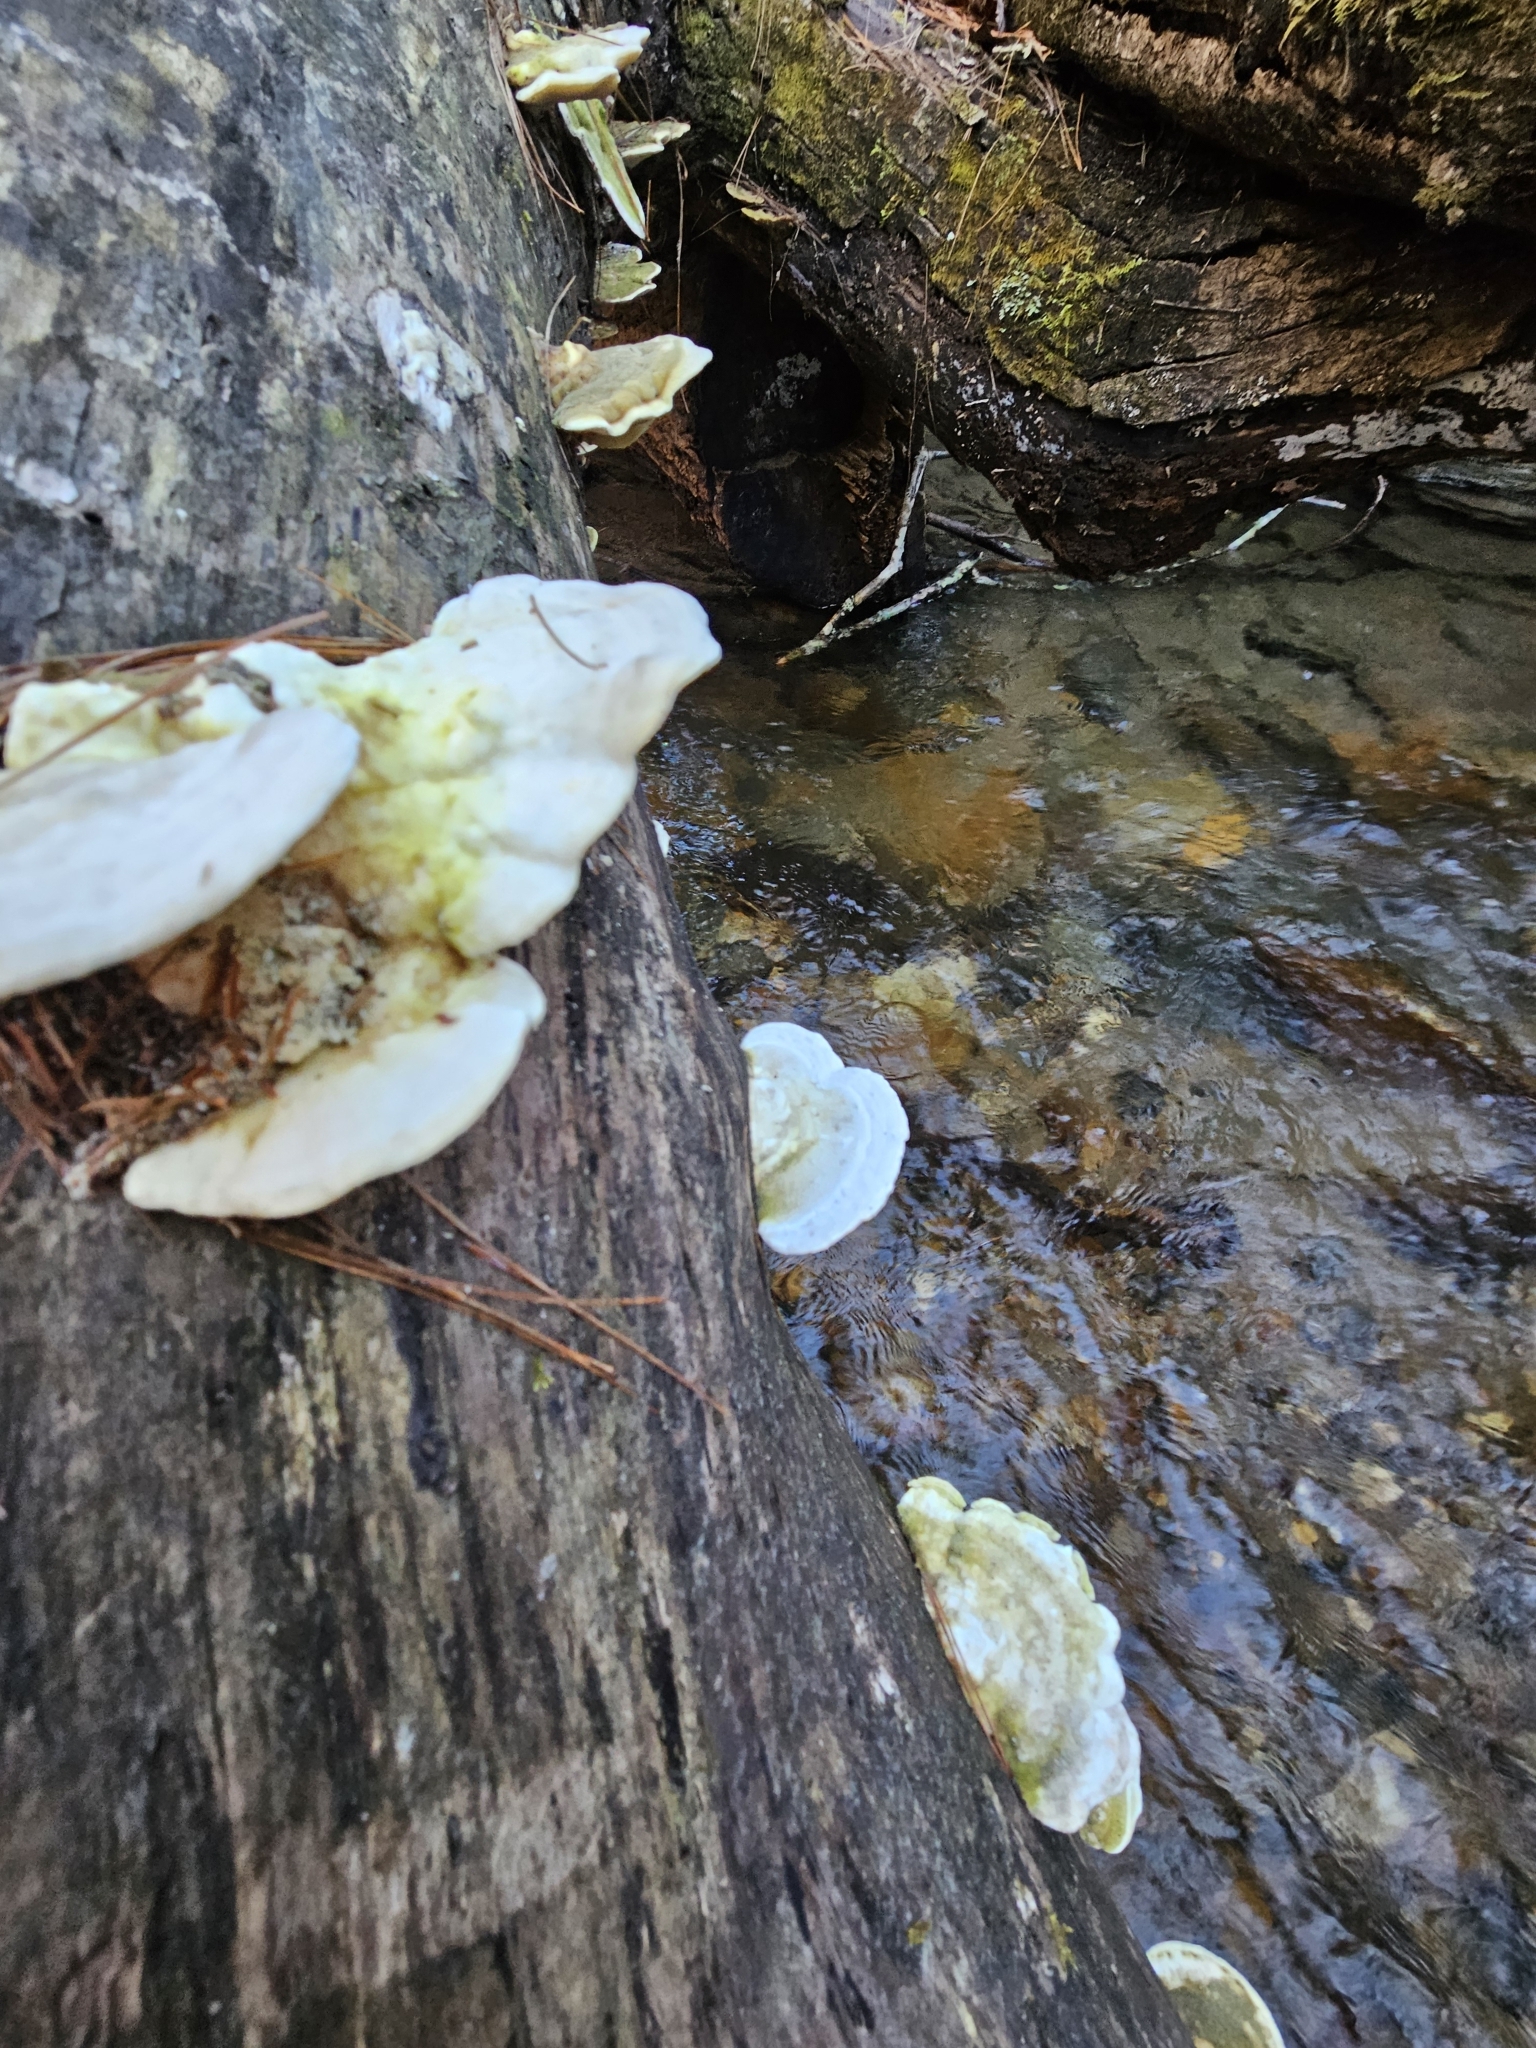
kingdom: Fungi
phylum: Basidiomycota
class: Agaricomycetes
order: Polyporales
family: Polyporaceae
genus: Trametes
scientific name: Trametes lactinea
